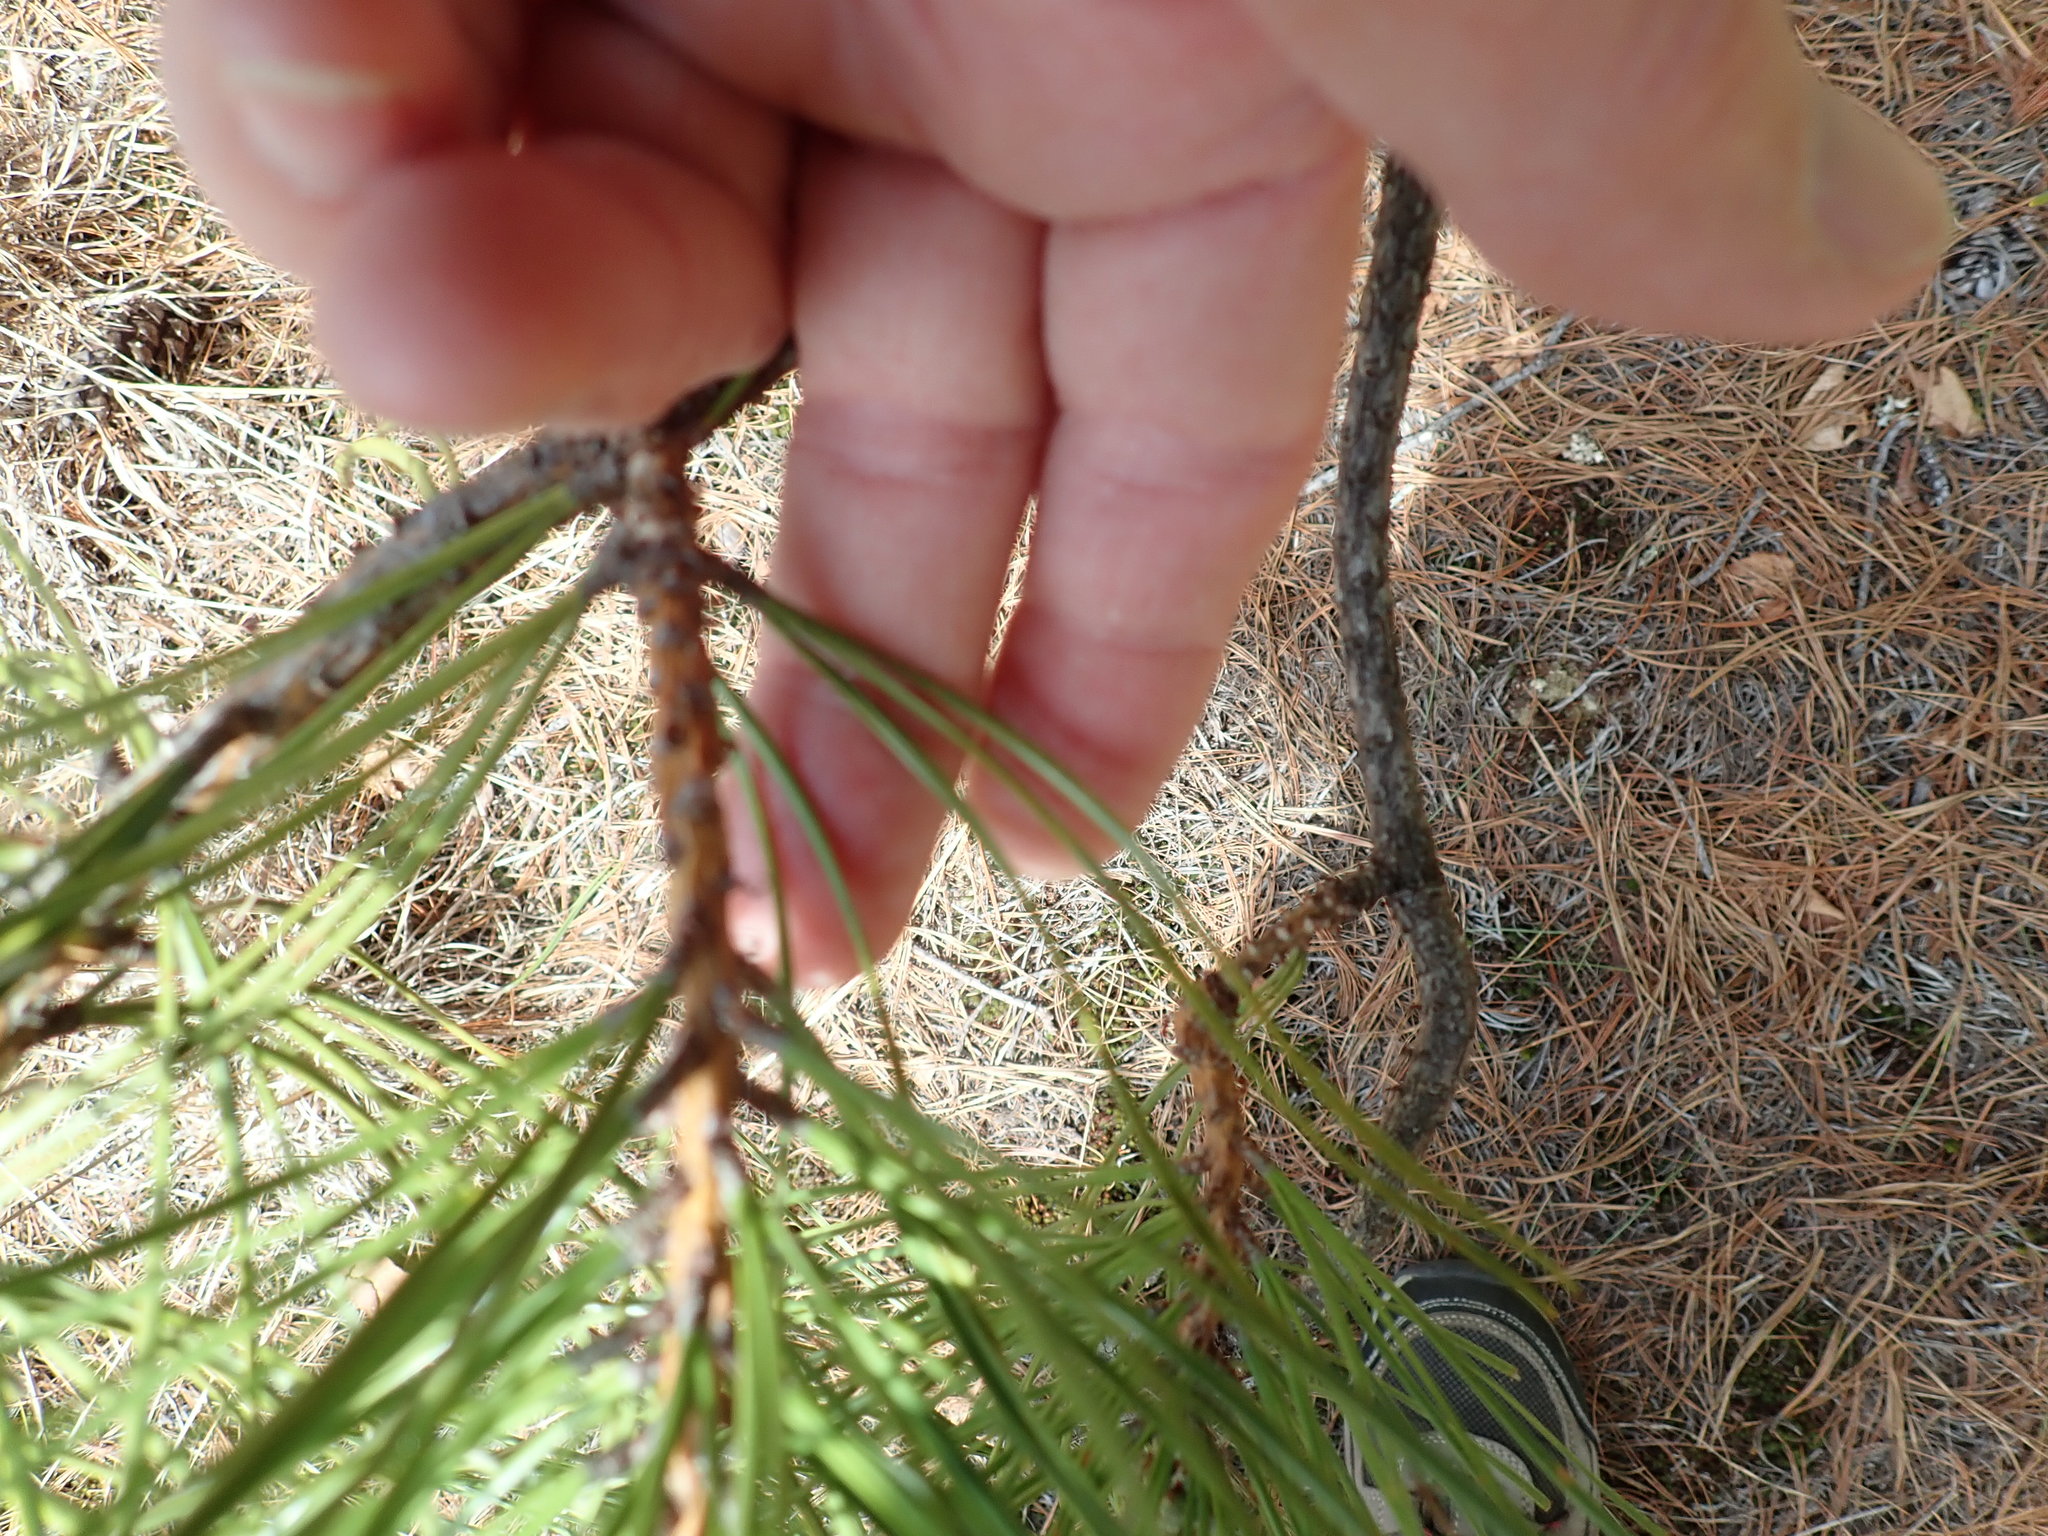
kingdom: Plantae
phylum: Tracheophyta
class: Pinopsida
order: Pinales
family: Pinaceae
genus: Pinus
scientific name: Pinus rigida
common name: Pitch pine
